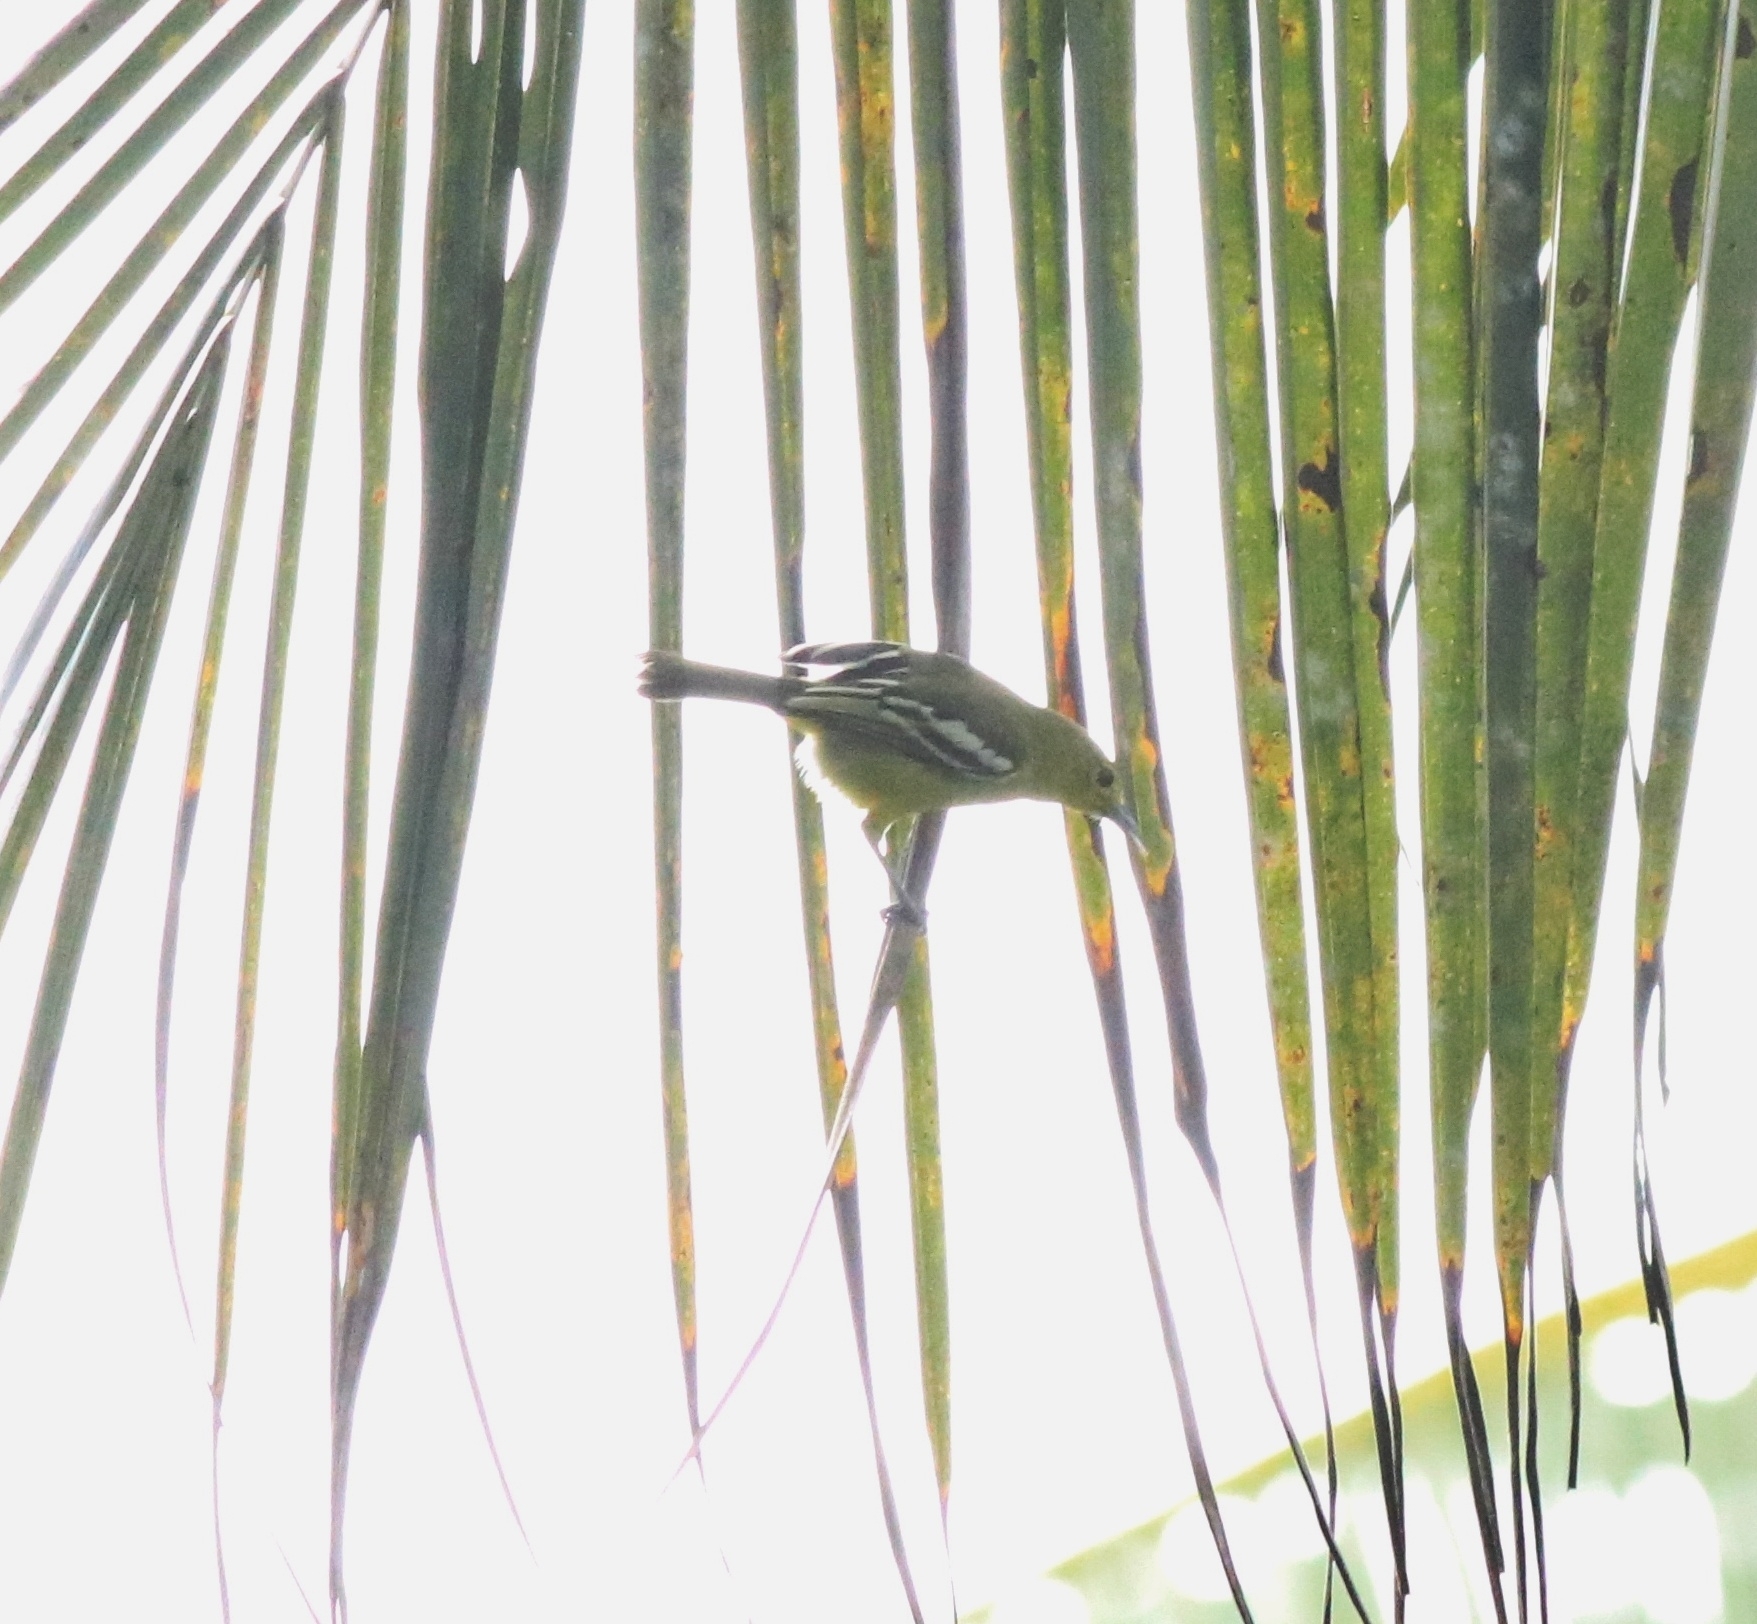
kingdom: Animalia
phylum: Chordata
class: Aves
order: Passeriformes
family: Aegithinidae
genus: Aegithina
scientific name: Aegithina tiphia
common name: Common iora
